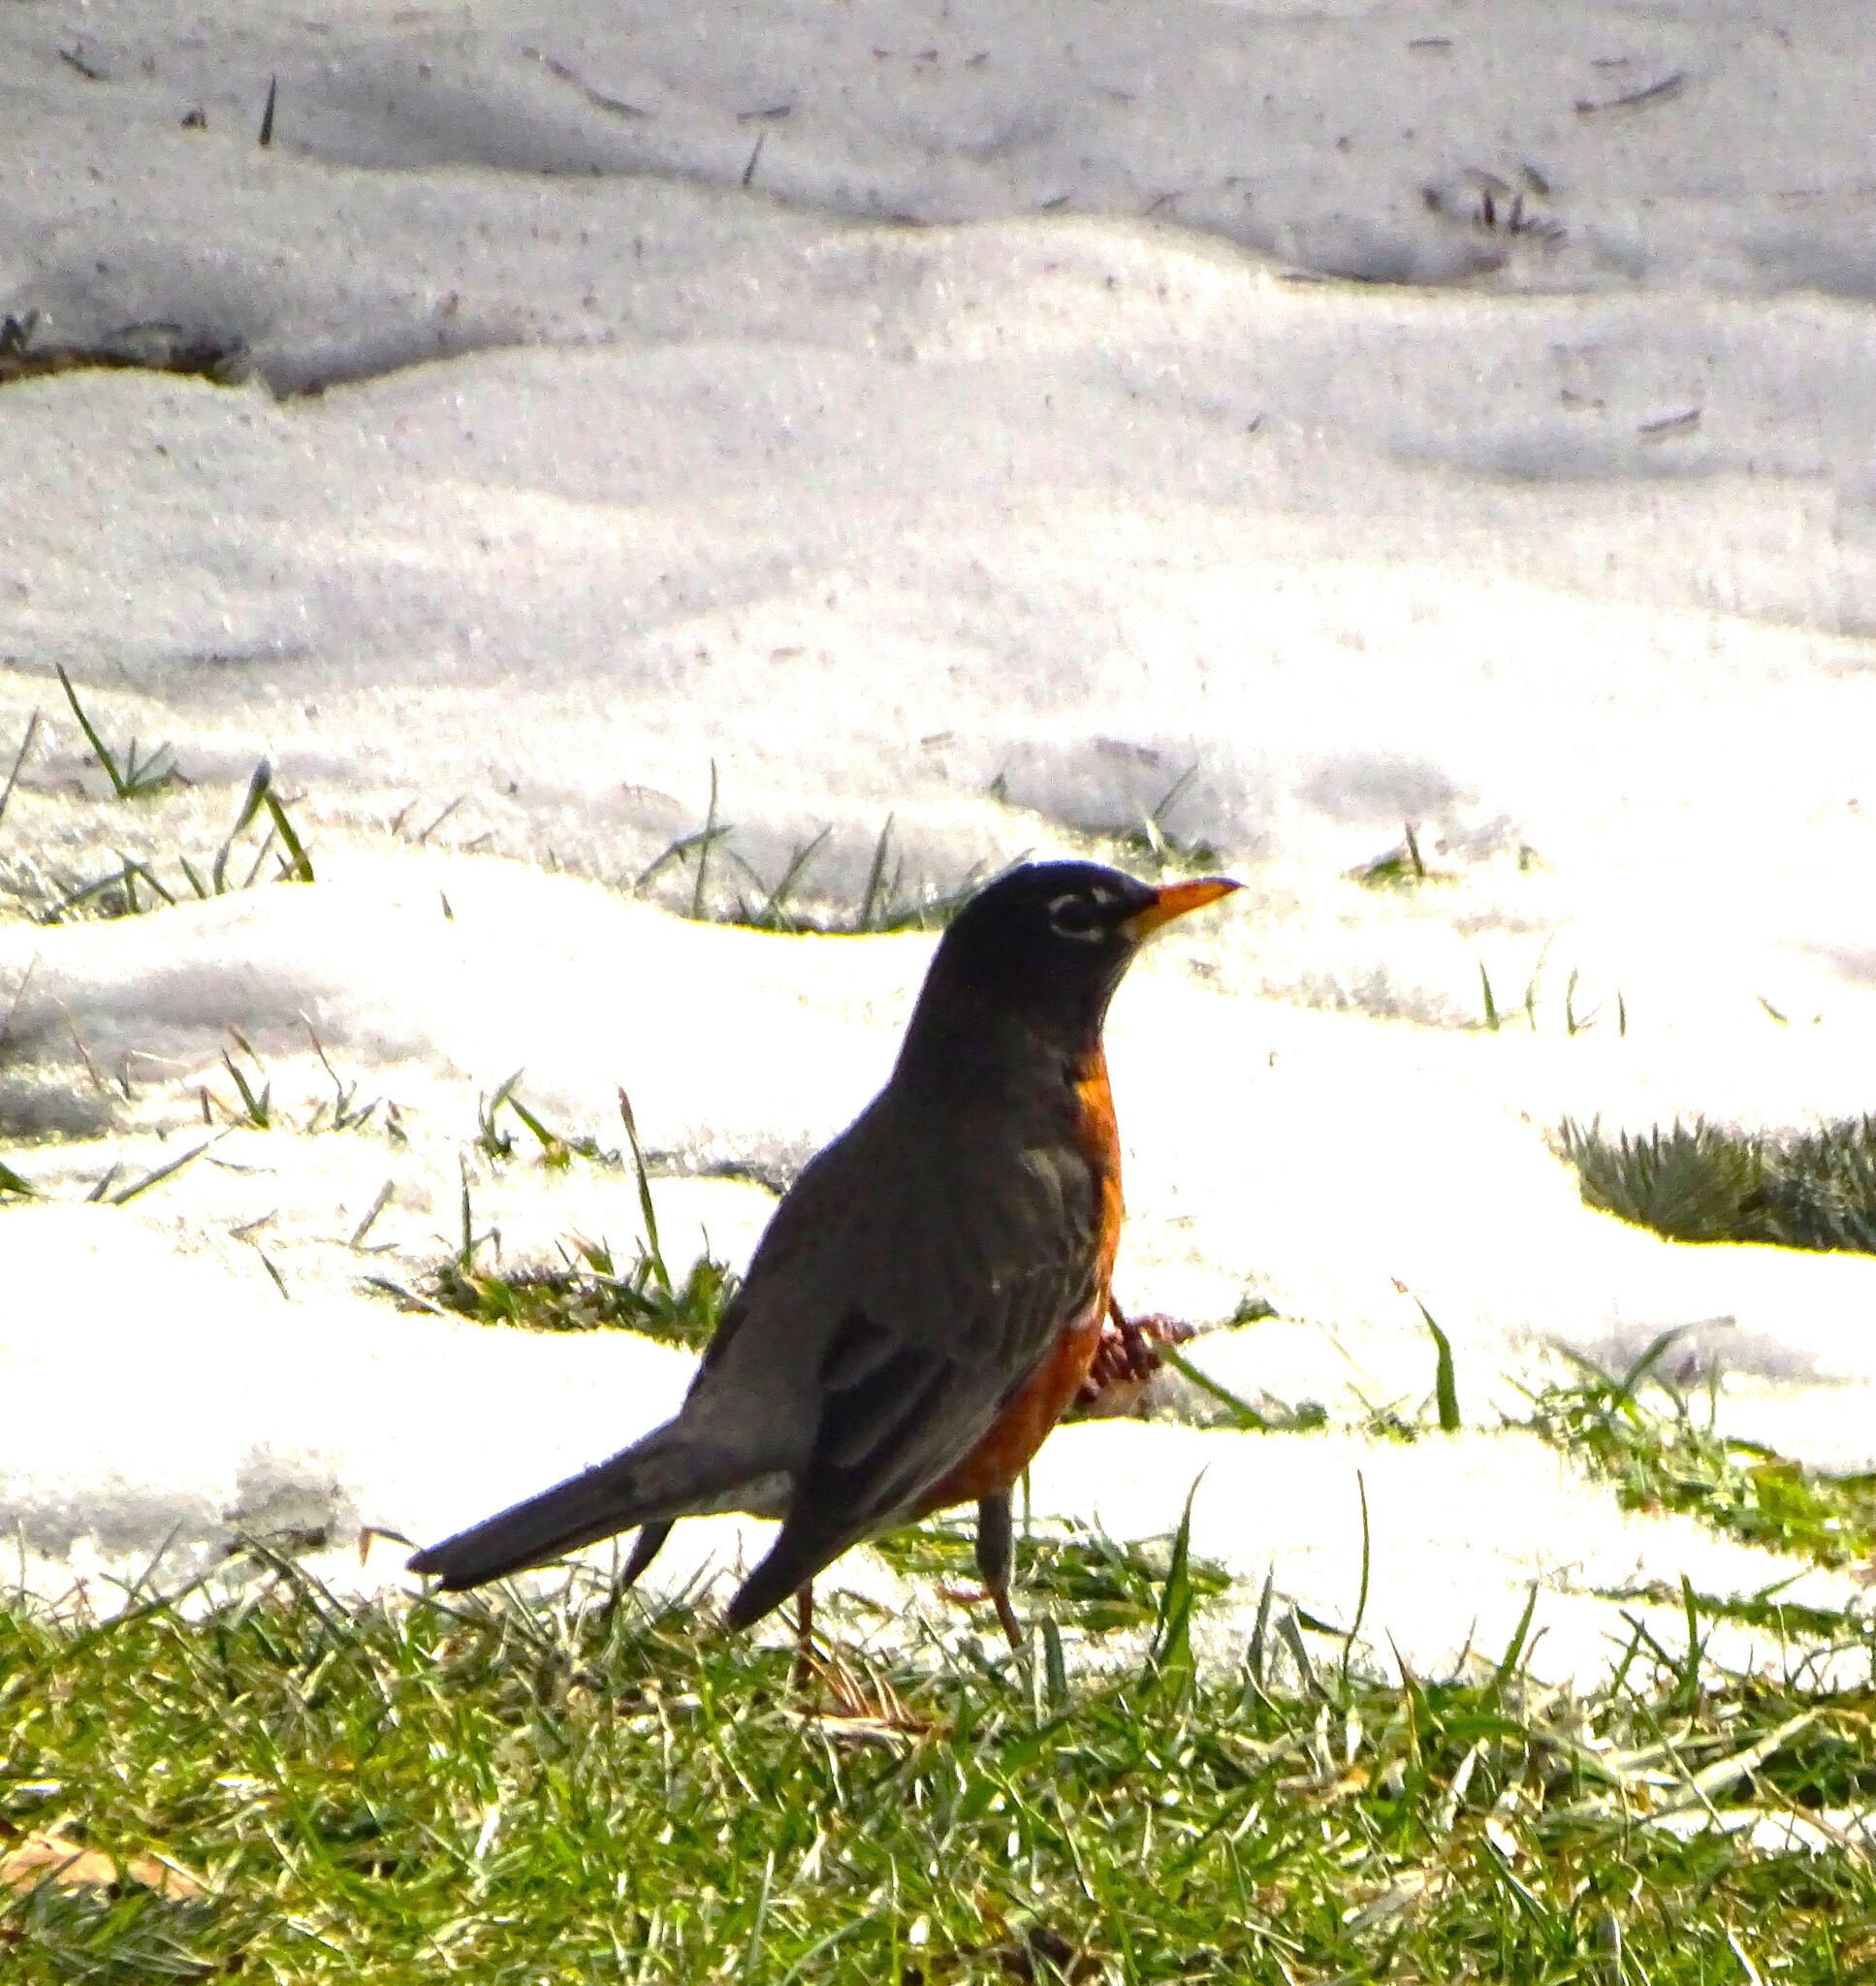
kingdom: Animalia
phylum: Chordata
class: Aves
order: Passeriformes
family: Turdidae
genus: Turdus
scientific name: Turdus migratorius
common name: American robin
